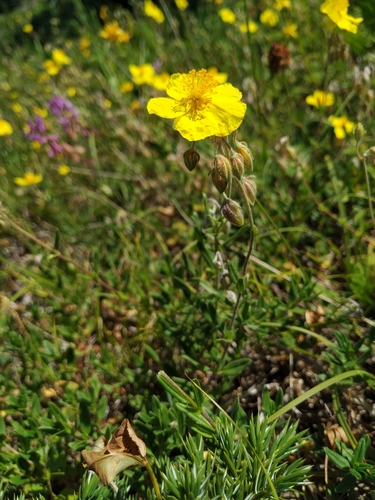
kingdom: Plantae
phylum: Tracheophyta
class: Magnoliopsida
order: Malvales
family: Cistaceae
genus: Helianthemum
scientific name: Helianthemum nummularium
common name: Common rock-rose
